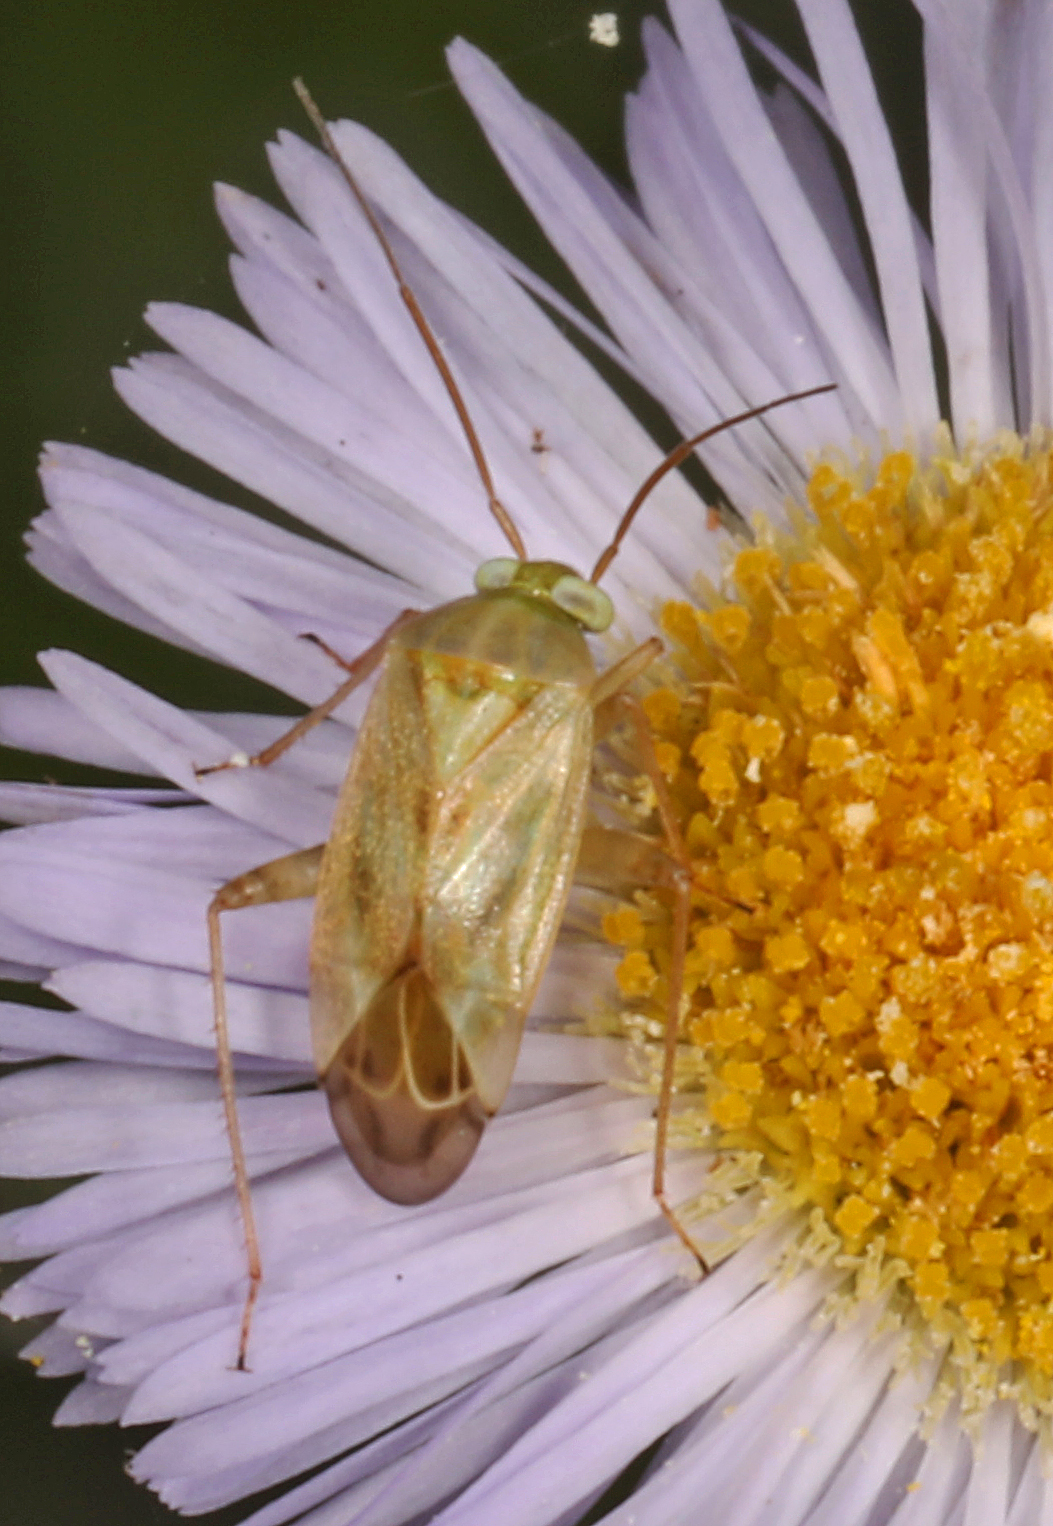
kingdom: Animalia
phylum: Arthropoda
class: Insecta
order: Hemiptera
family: Miridae
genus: Taylorilygus
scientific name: Taylorilygus apicalis
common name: Plant bug
